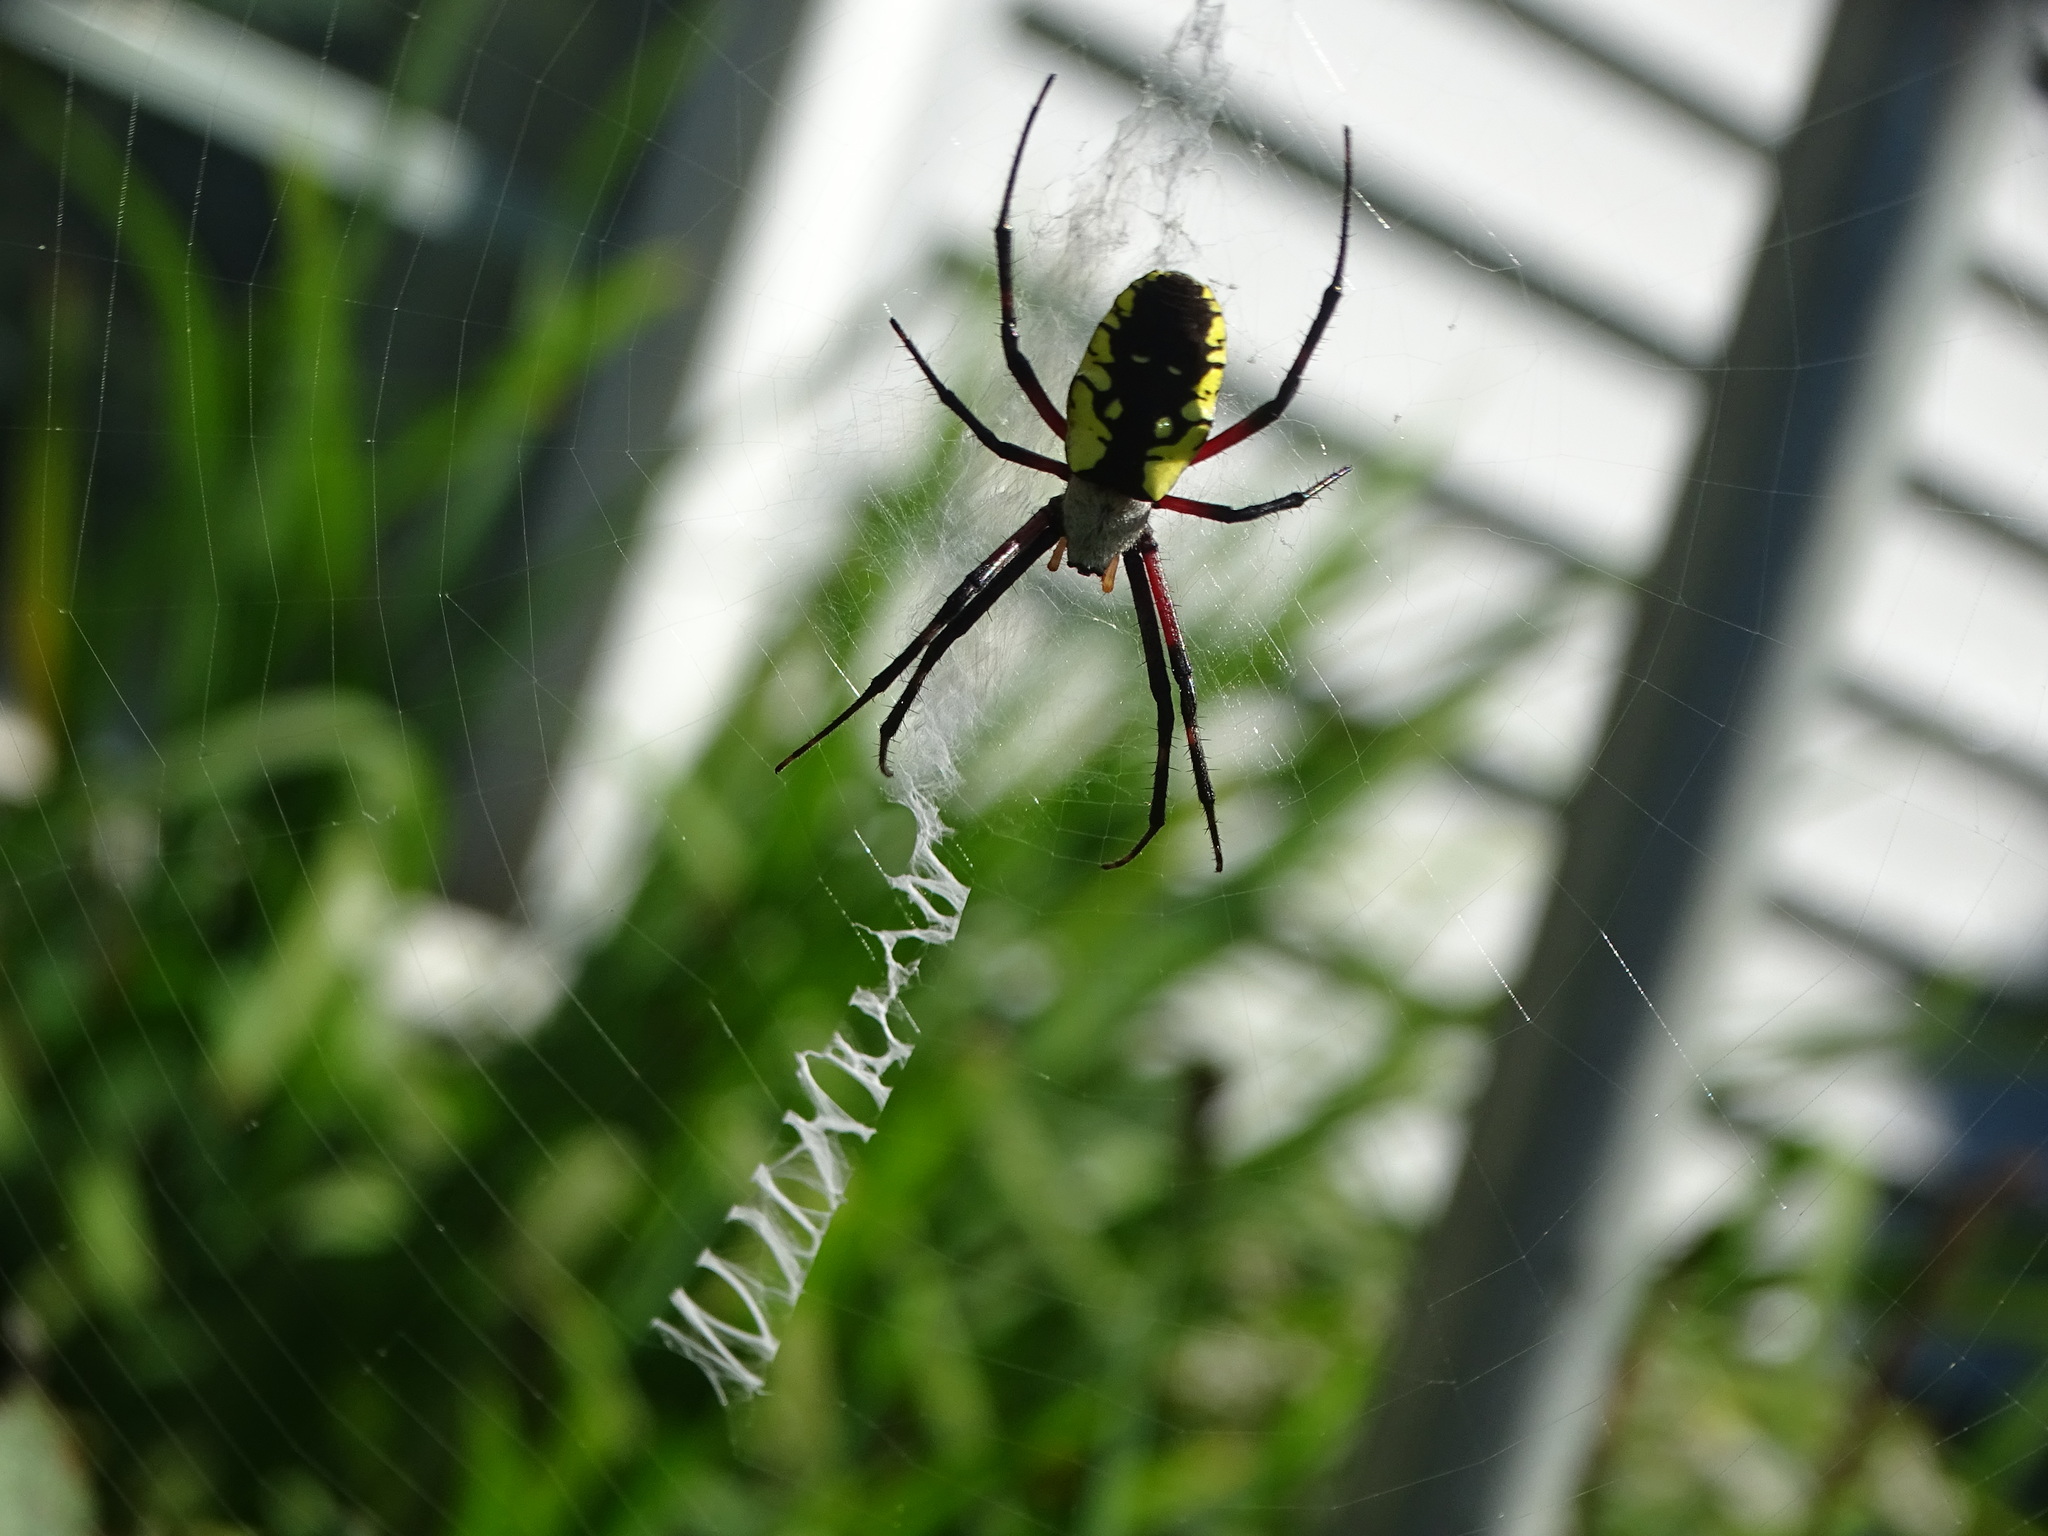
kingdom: Animalia
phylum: Arthropoda
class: Arachnida
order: Araneae
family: Araneidae
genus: Argiope
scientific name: Argiope aurantia
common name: Orb weavers
